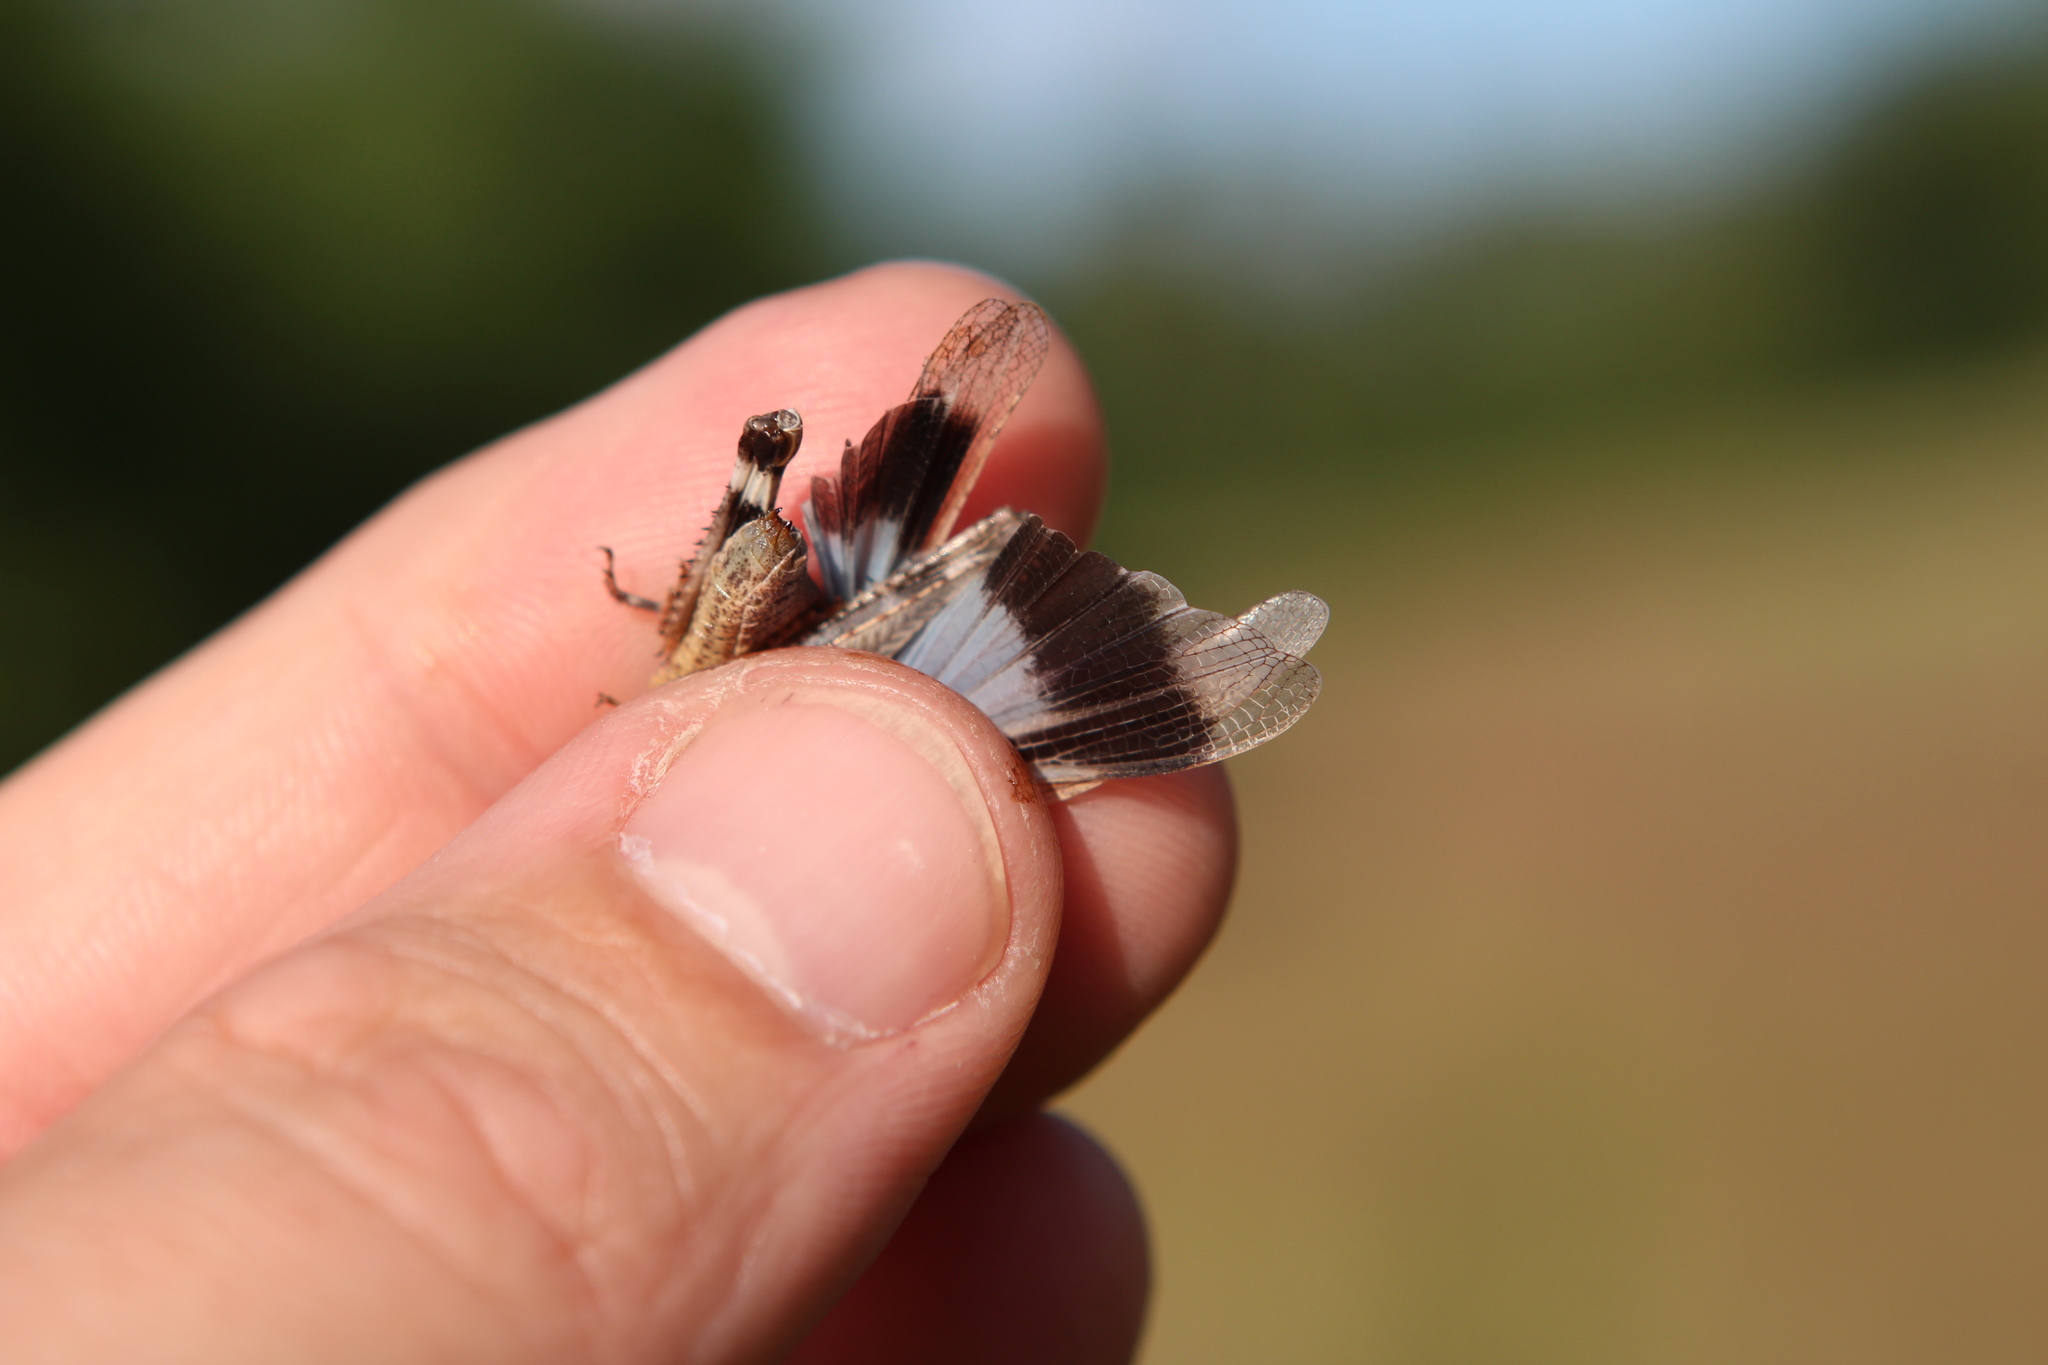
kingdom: Animalia
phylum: Arthropoda
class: Insecta
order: Orthoptera
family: Acrididae
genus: Oedipoda
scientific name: Oedipoda caerulescens
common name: Blue-winged grasshopper
